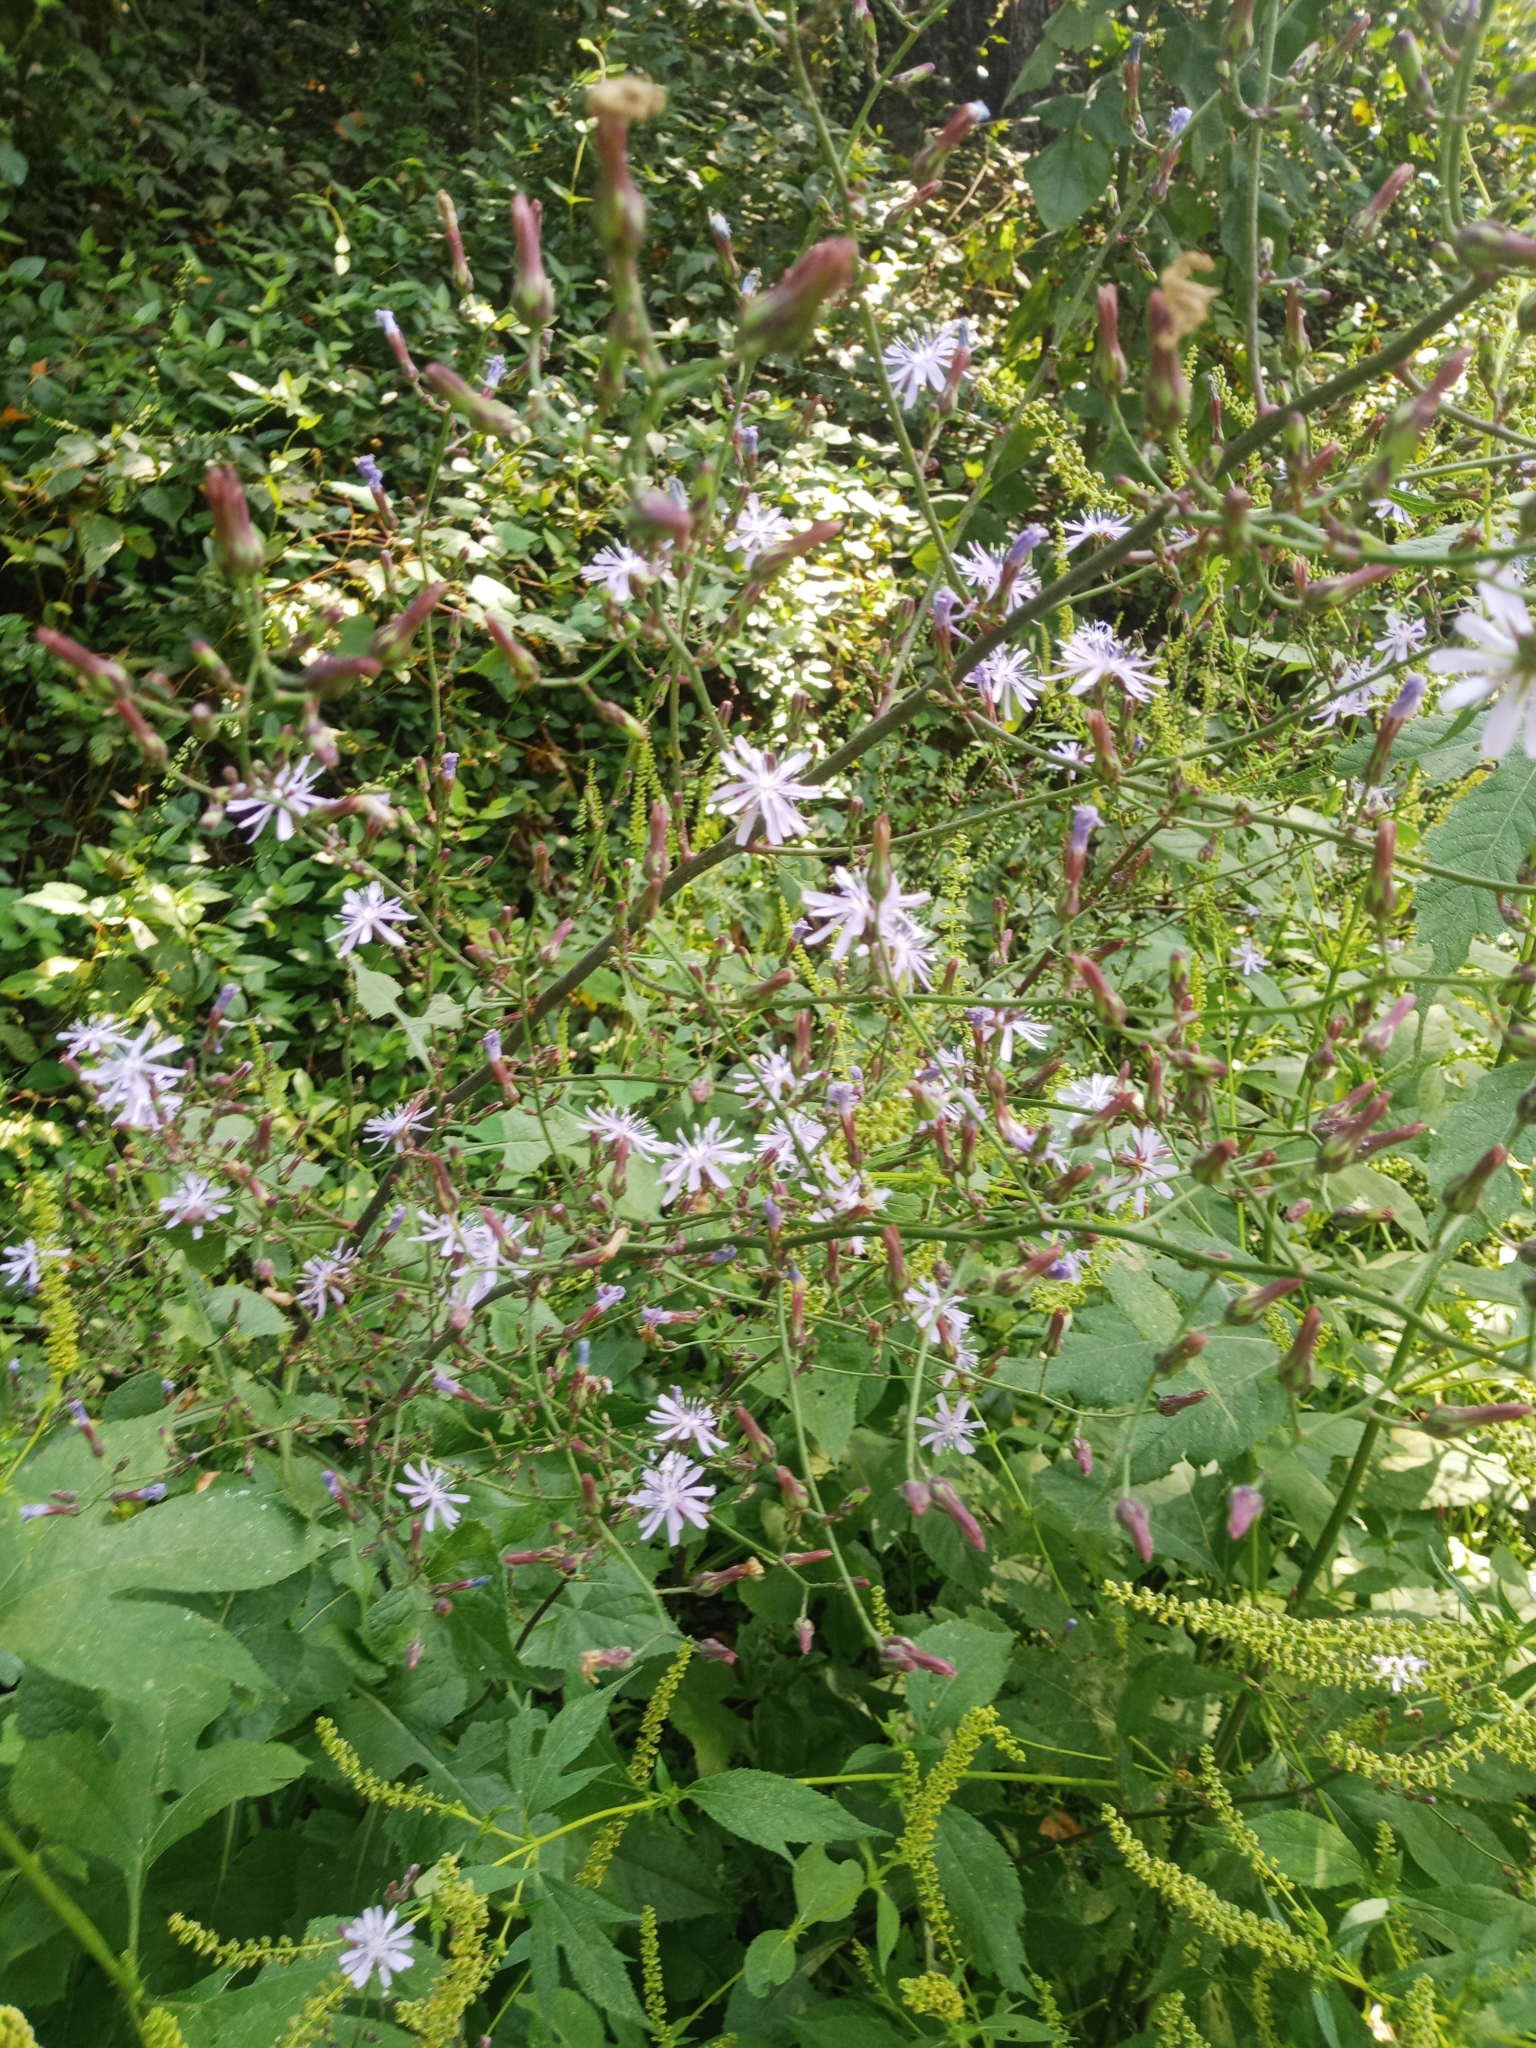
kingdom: Plantae
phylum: Tracheophyta
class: Magnoliopsida
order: Asterales
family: Asteraceae
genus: Lactuca
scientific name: Lactuca floridana
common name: Woodland lettuce
